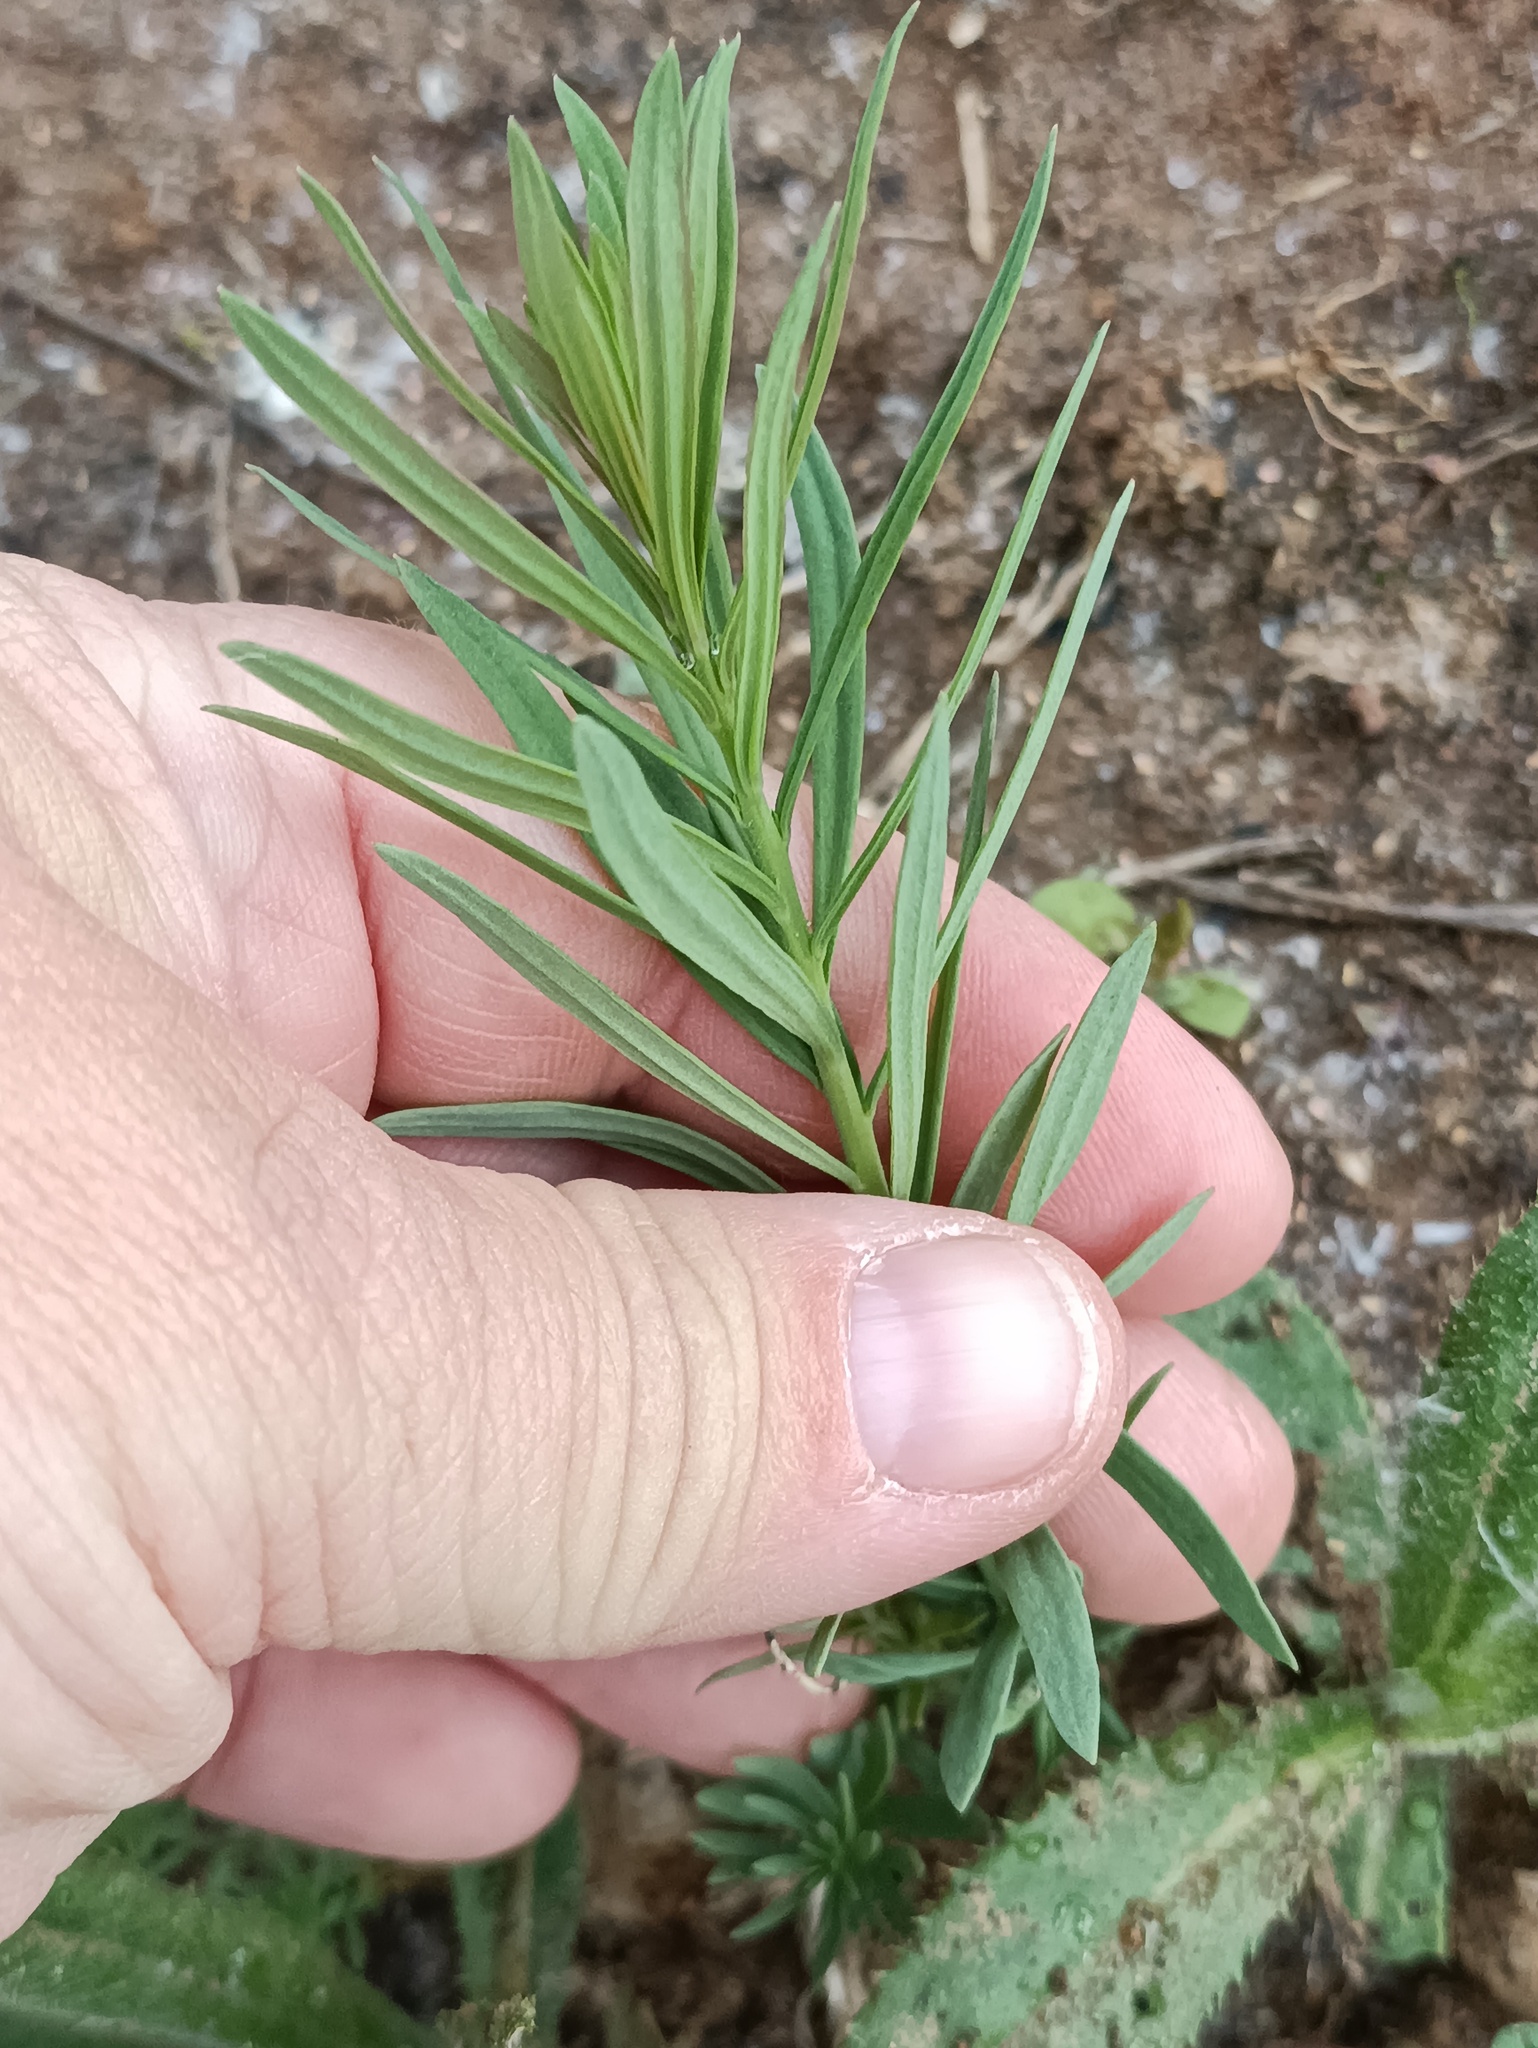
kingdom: Plantae
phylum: Tracheophyta
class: Magnoliopsida
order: Lamiales
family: Plantaginaceae
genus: Linaria
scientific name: Linaria vulgaris
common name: Butter and eggs
